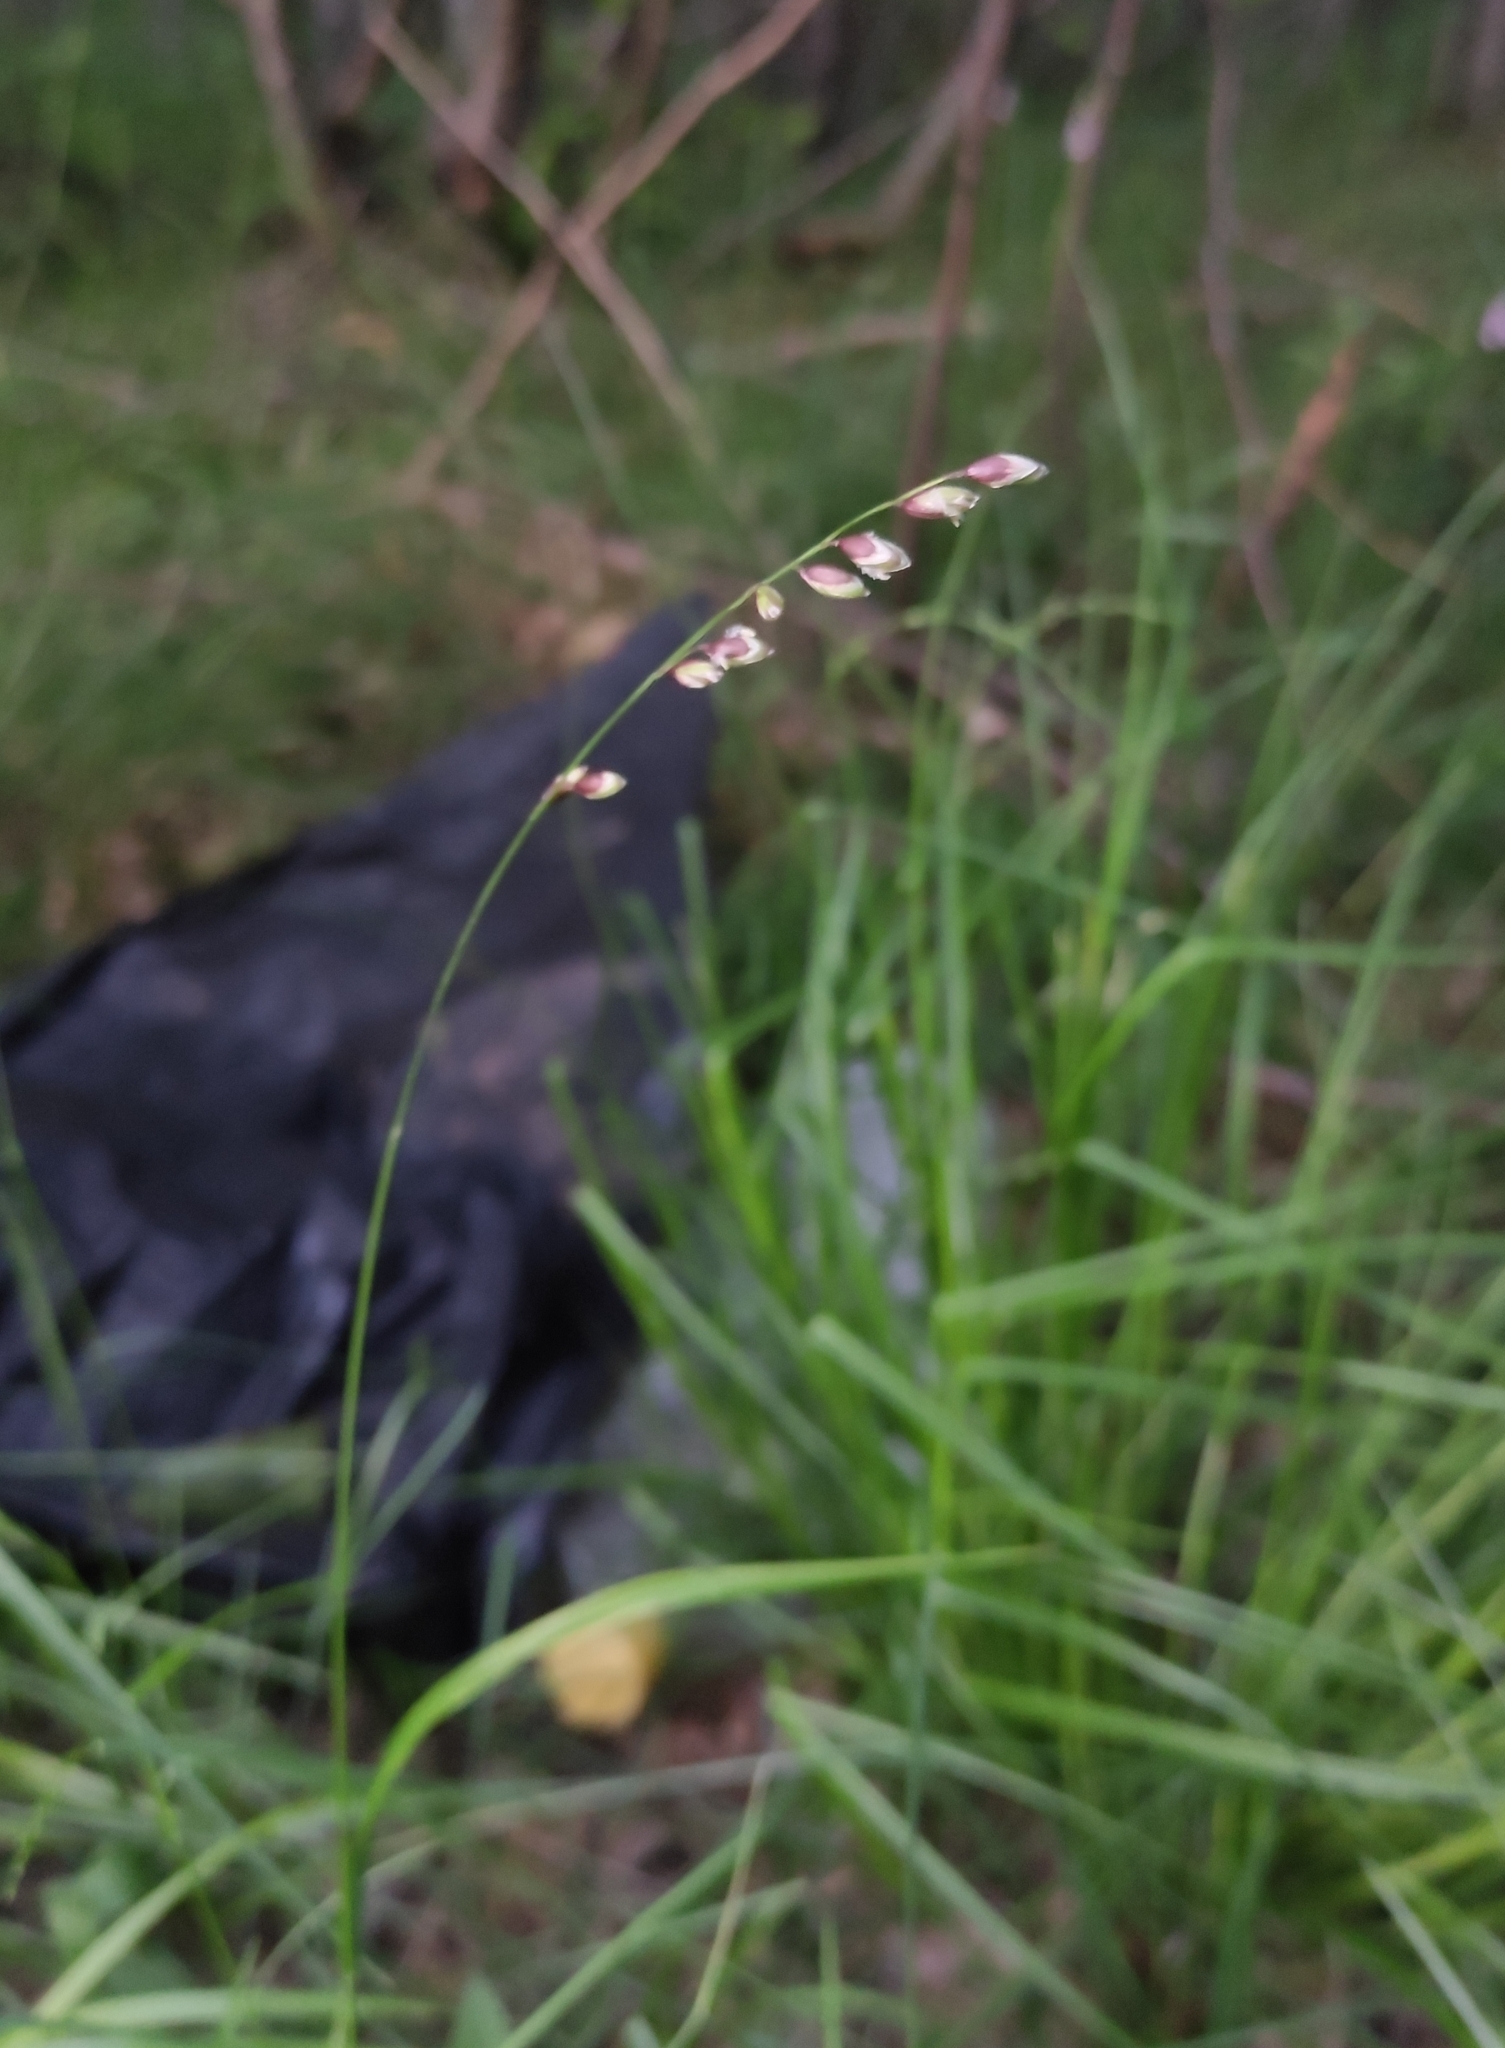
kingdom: Plantae
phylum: Tracheophyta
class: Liliopsida
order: Poales
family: Poaceae
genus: Melica
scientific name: Melica nutans
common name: Mountain melick
